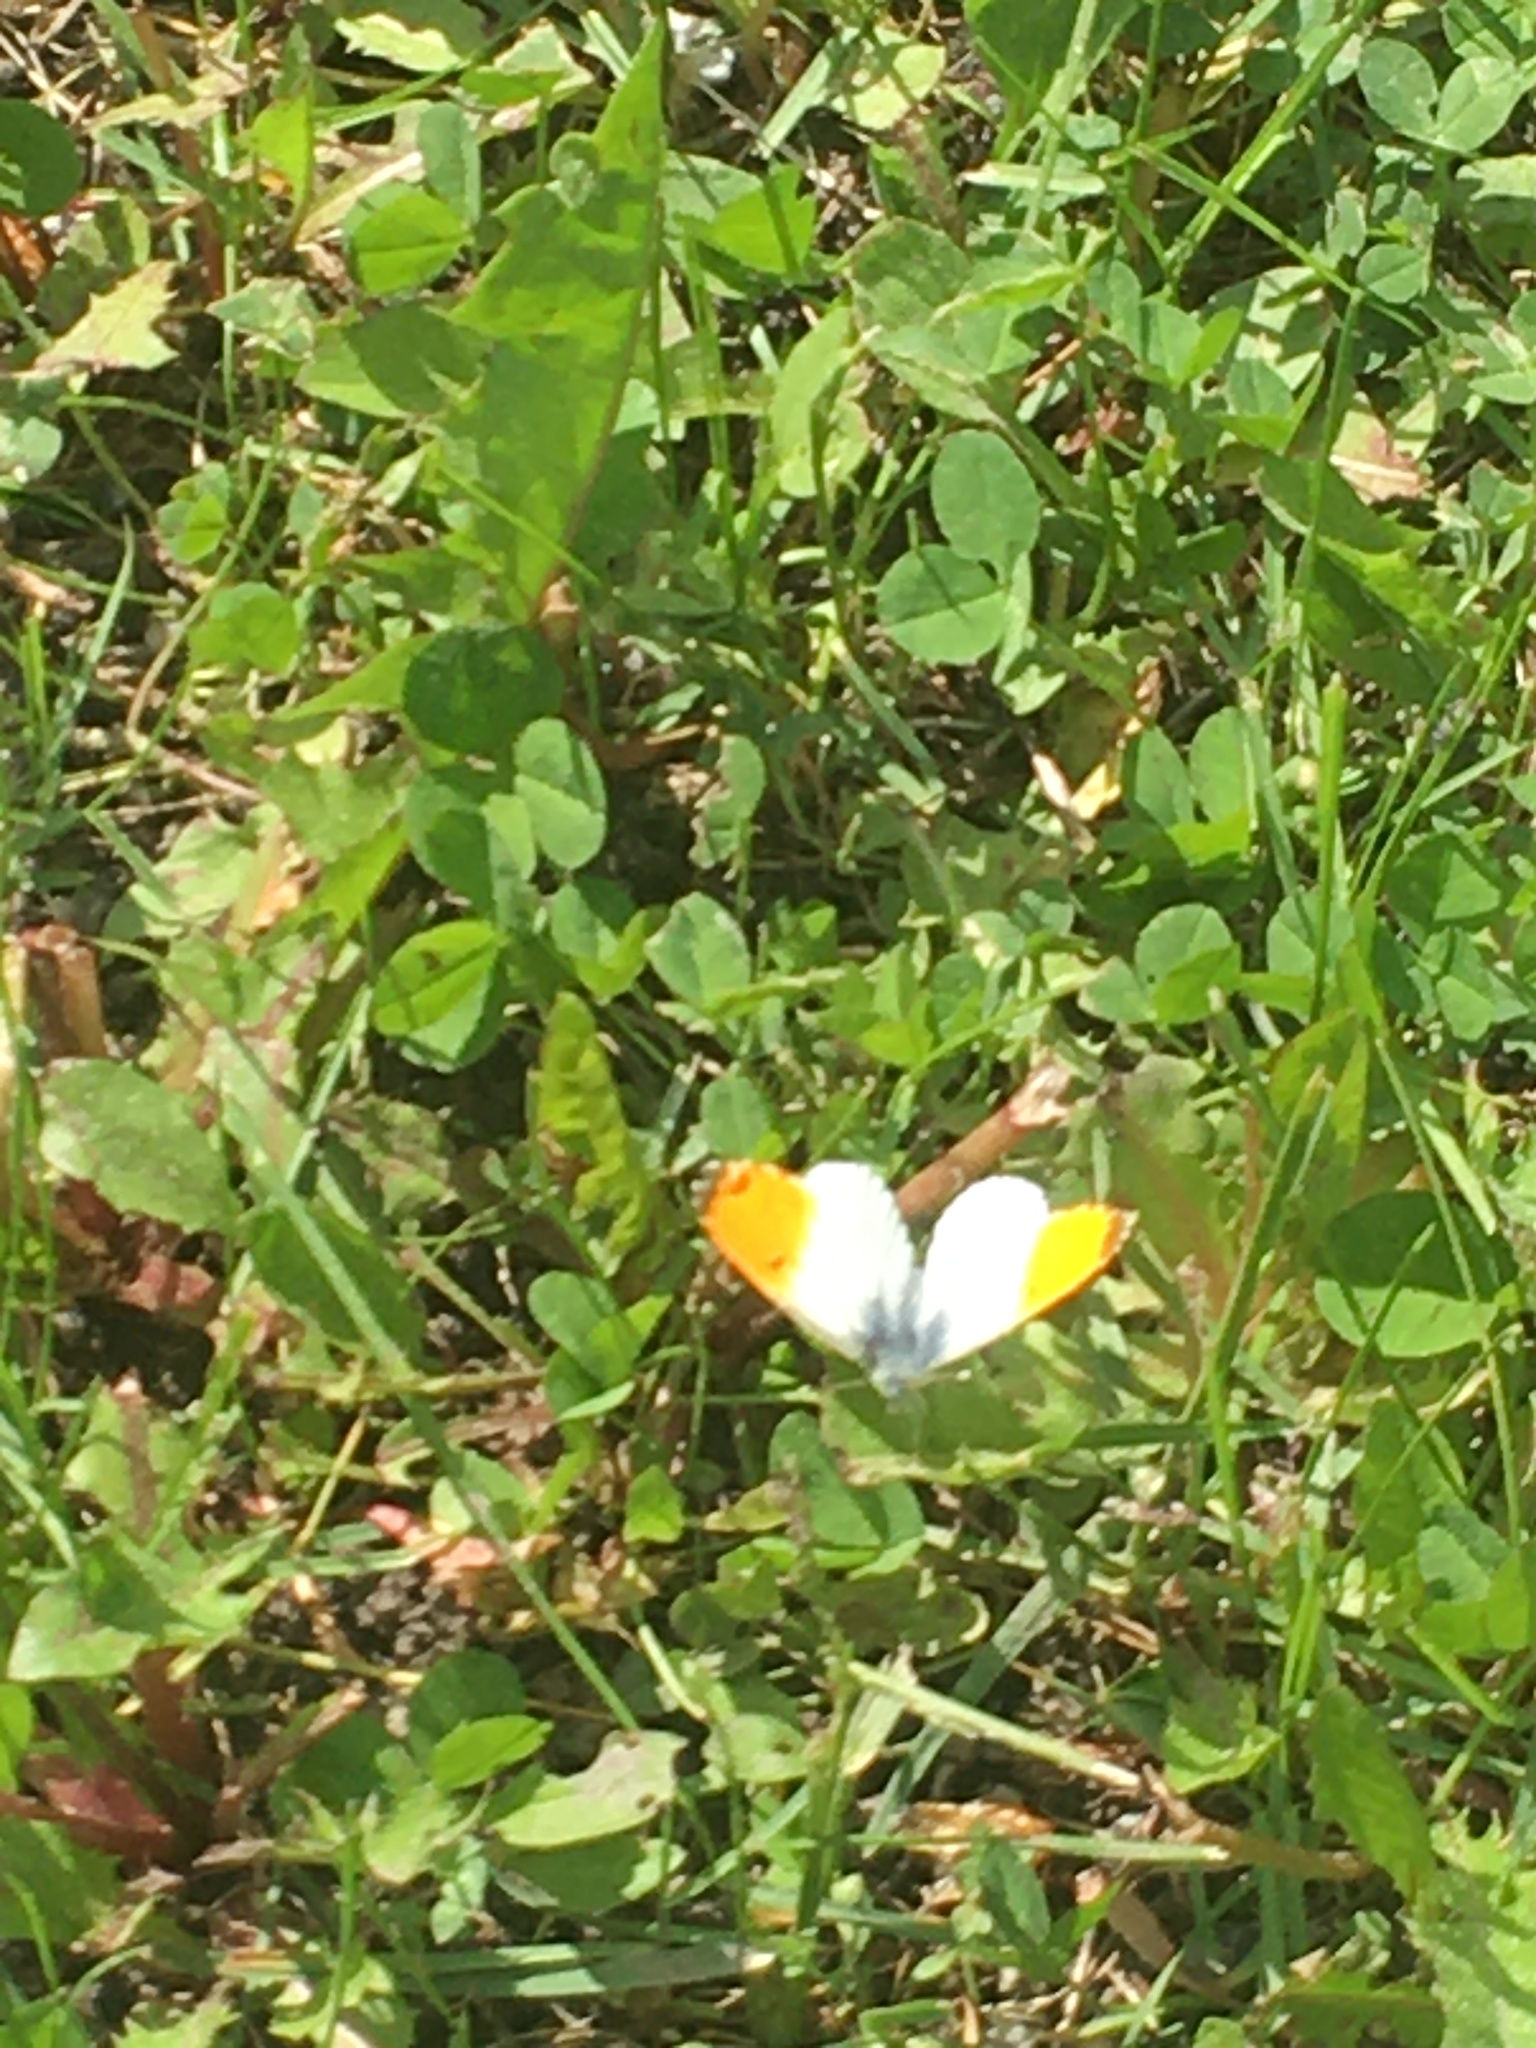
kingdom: Animalia
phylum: Arthropoda
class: Insecta
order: Lepidoptera
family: Pieridae
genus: Anthocharis
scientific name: Anthocharis cardamines
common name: Orange-tip
